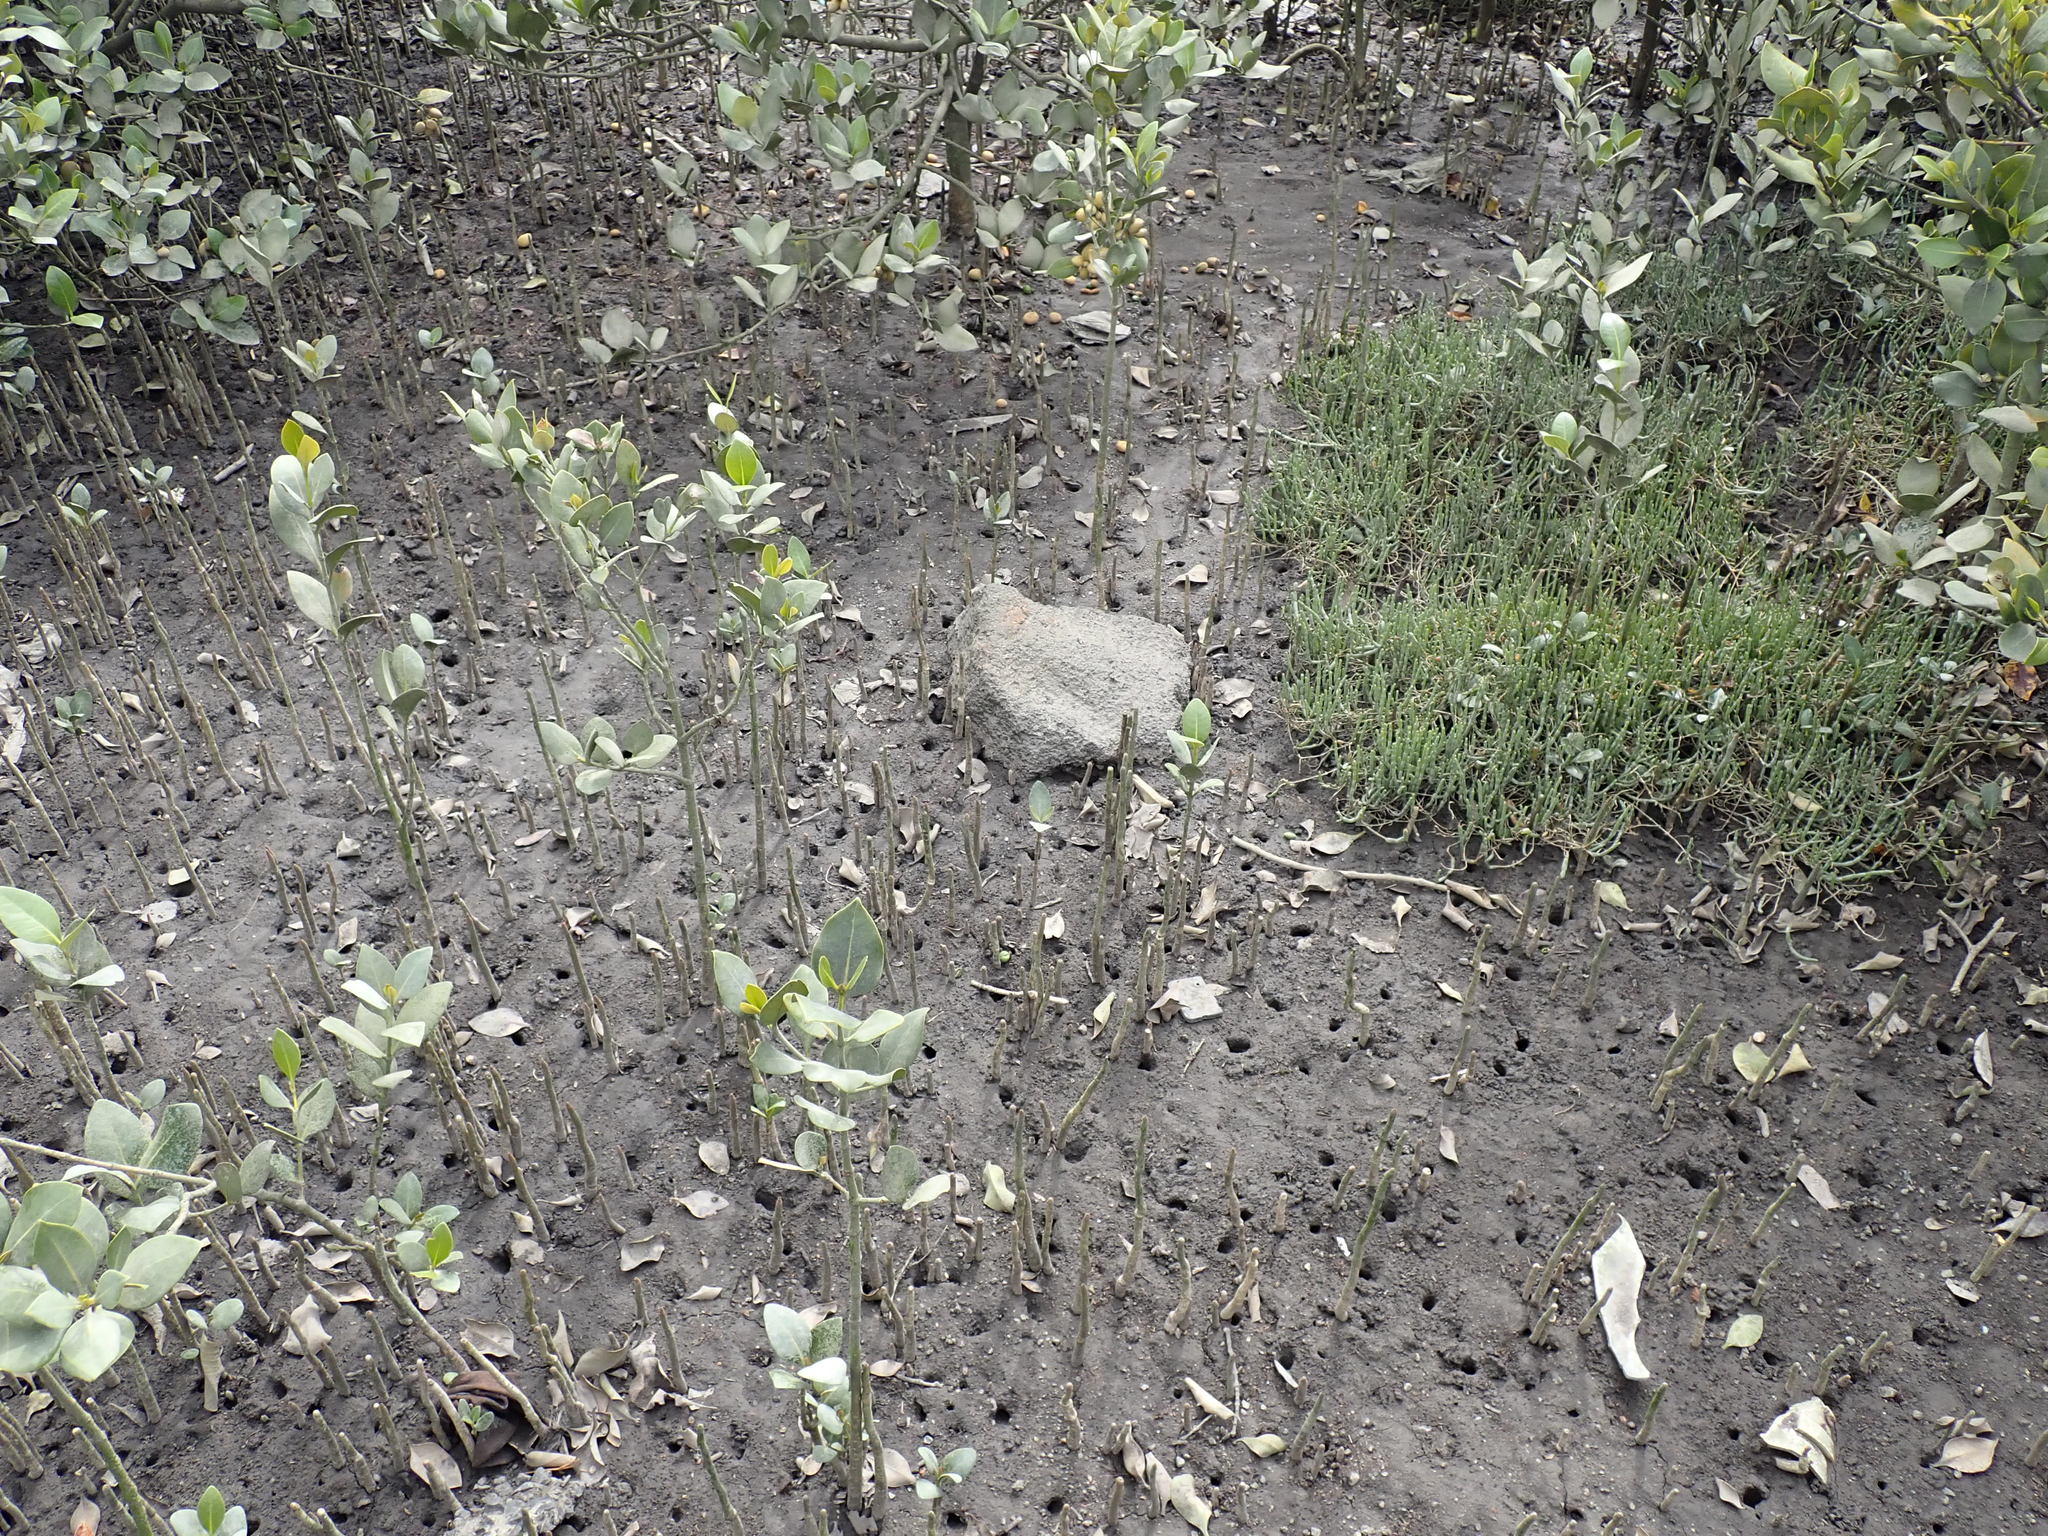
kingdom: Plantae
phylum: Tracheophyta
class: Magnoliopsida
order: Lamiales
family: Acanthaceae
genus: Avicennia
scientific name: Avicennia marina
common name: Gray mangrove
